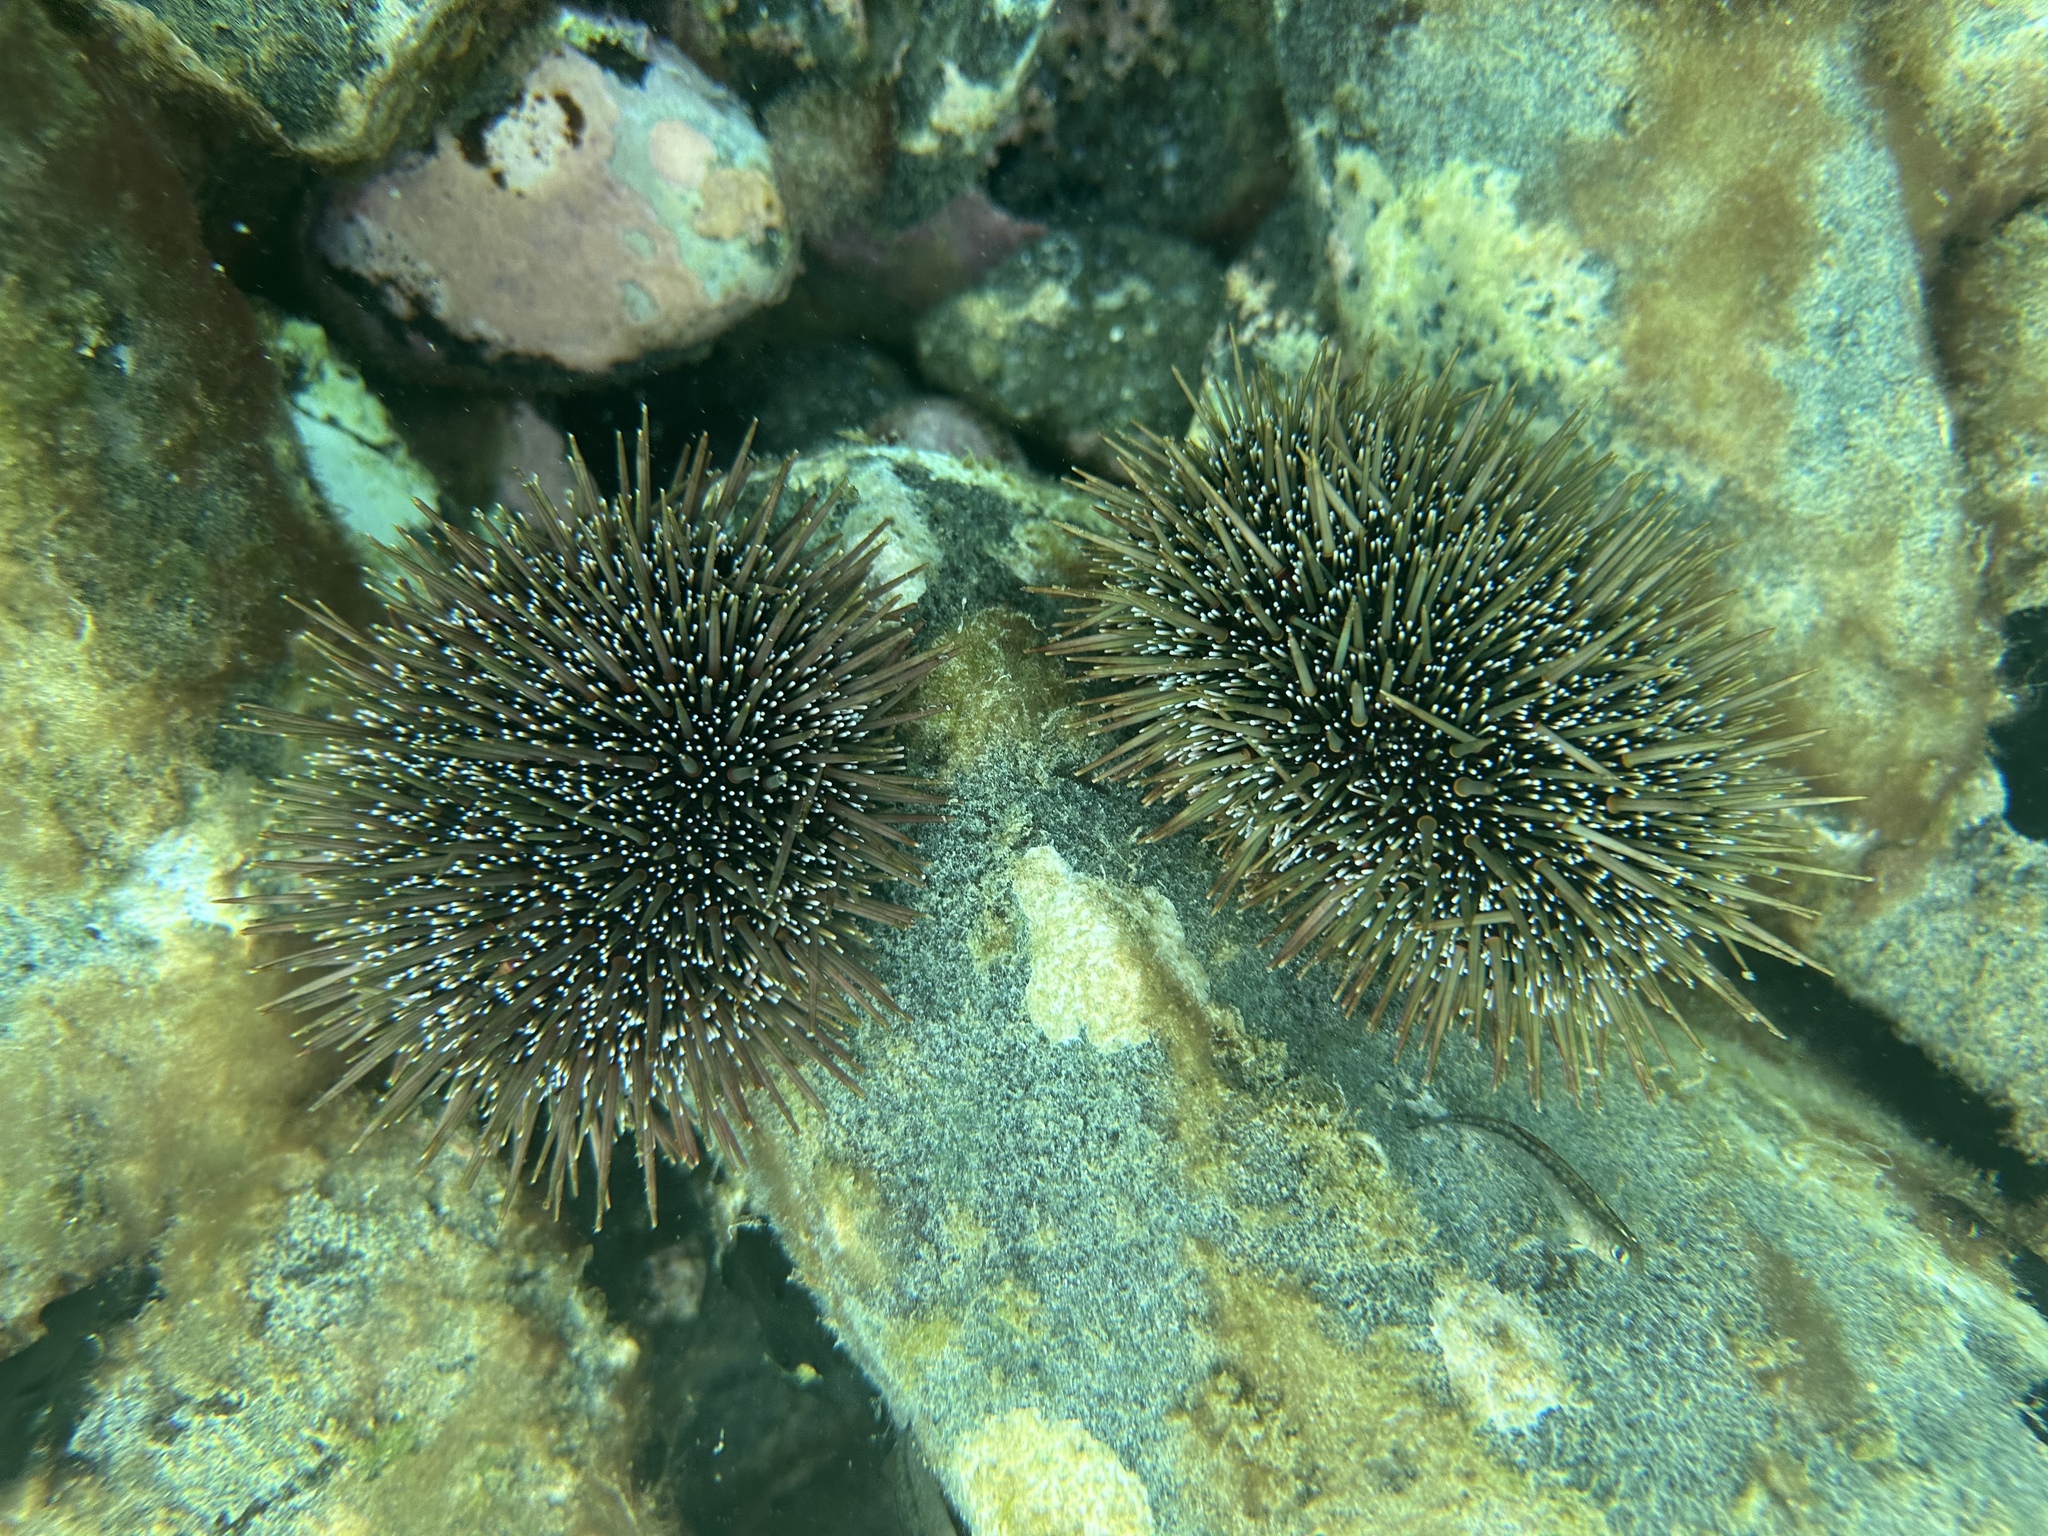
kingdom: Animalia
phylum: Echinodermata
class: Echinoidea
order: Camarodonta
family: Echinometridae
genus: Evechinus
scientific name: Evechinus chloroticus
